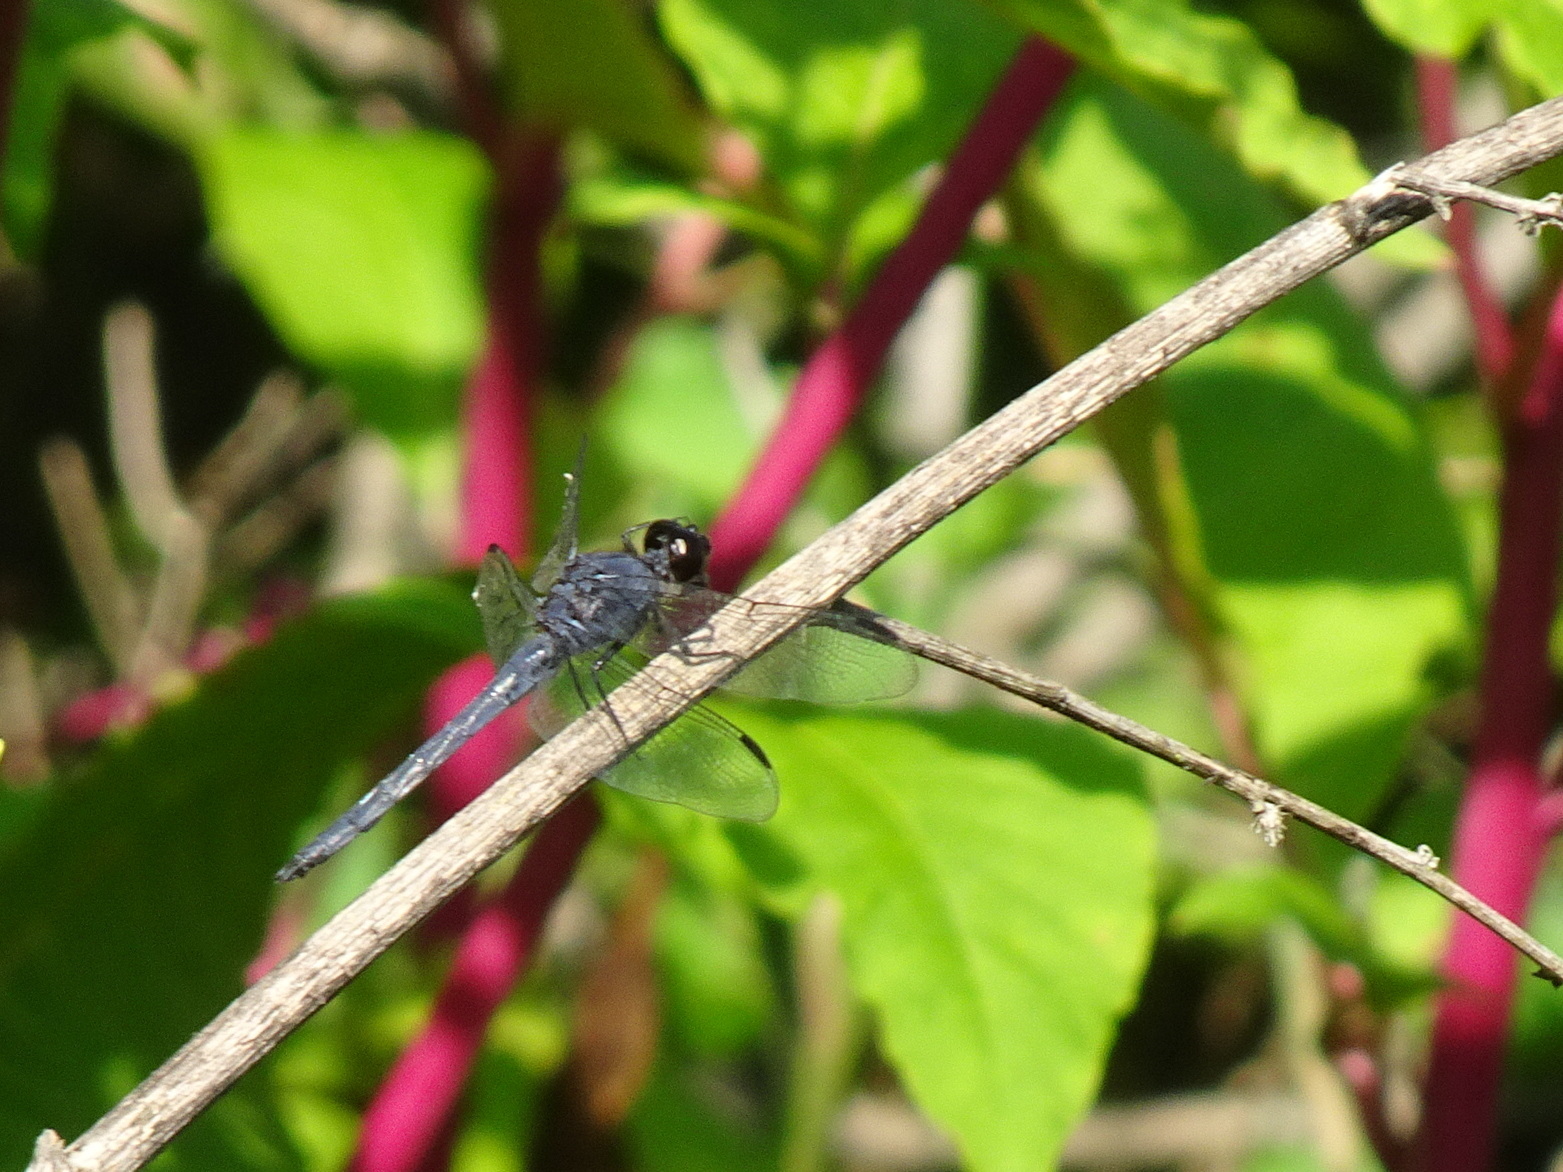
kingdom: Animalia
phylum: Arthropoda
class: Insecta
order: Odonata
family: Libellulidae
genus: Libellula
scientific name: Libellula incesta
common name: Slaty skimmer
